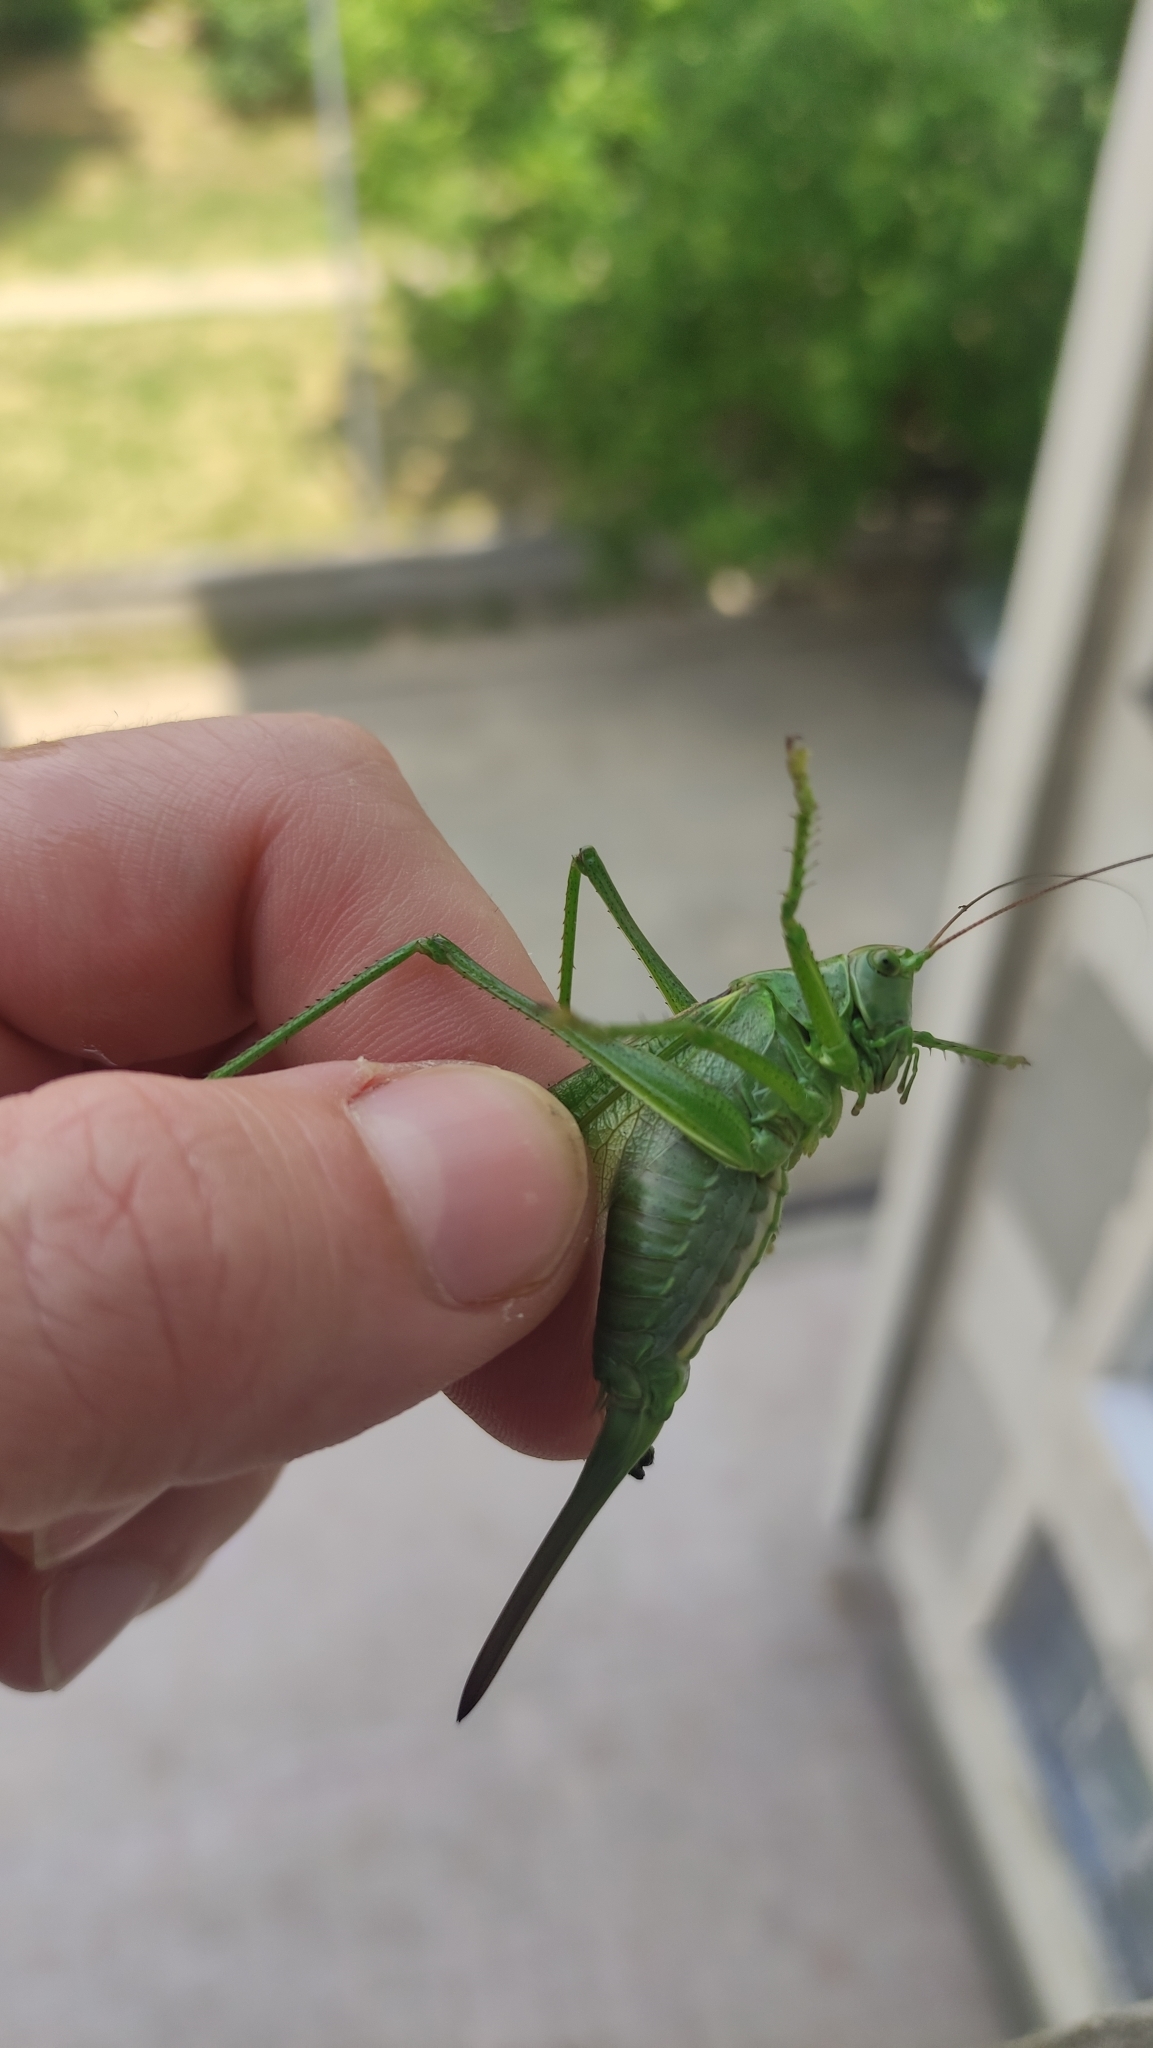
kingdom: Animalia
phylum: Arthropoda
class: Insecta
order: Orthoptera
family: Tettigoniidae
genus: Tettigonia
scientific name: Tettigonia viridissima
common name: Great green bush-cricket
